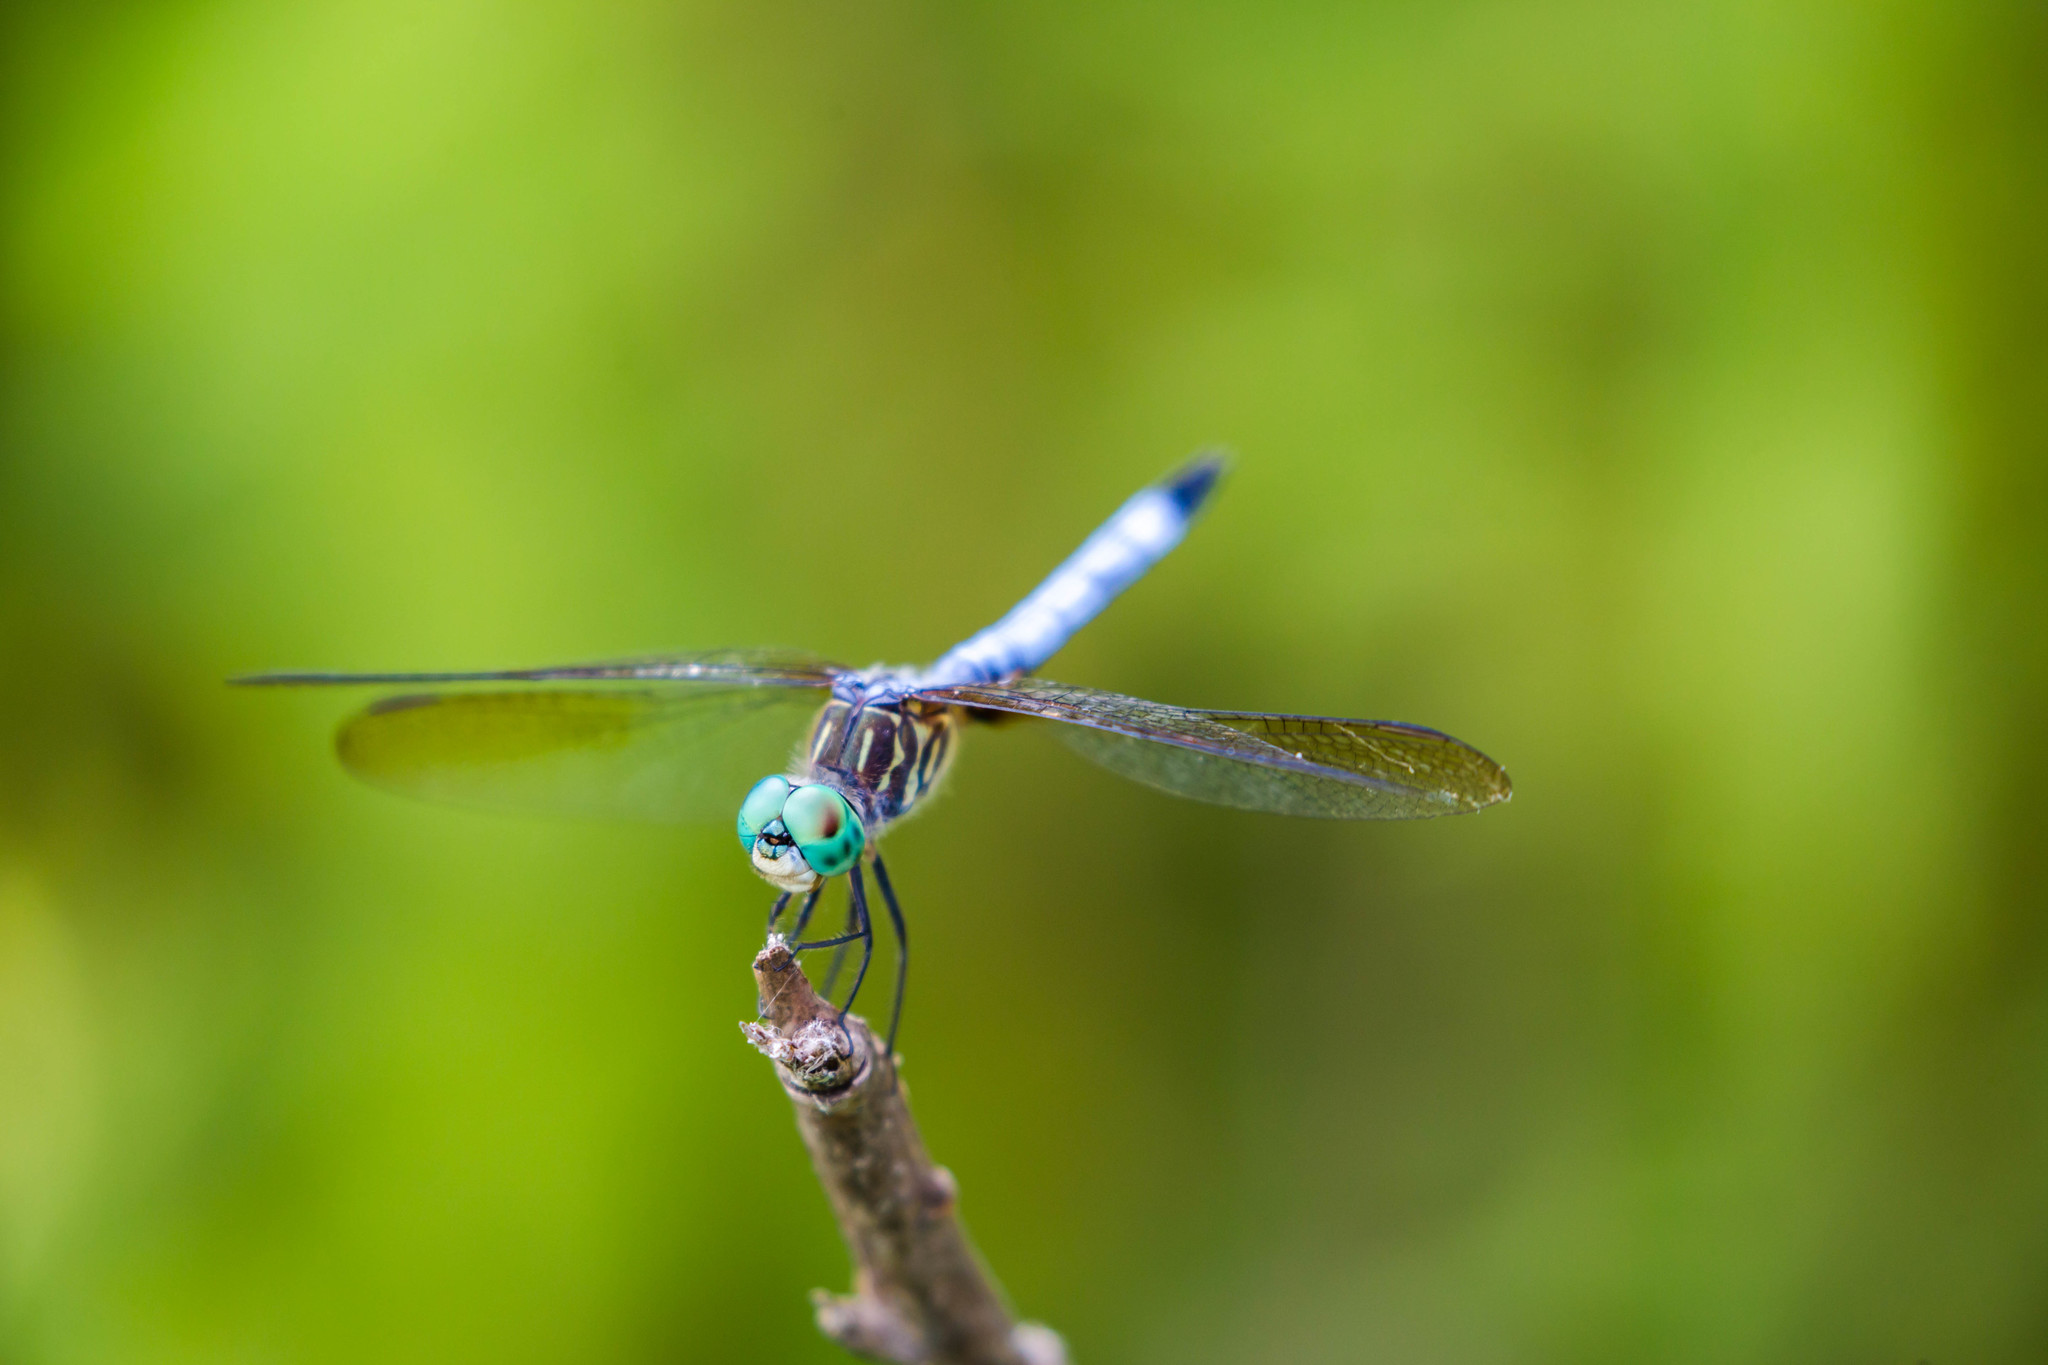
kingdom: Animalia
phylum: Arthropoda
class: Insecta
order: Odonata
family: Libellulidae
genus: Pachydiplax
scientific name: Pachydiplax longipennis
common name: Blue dasher
